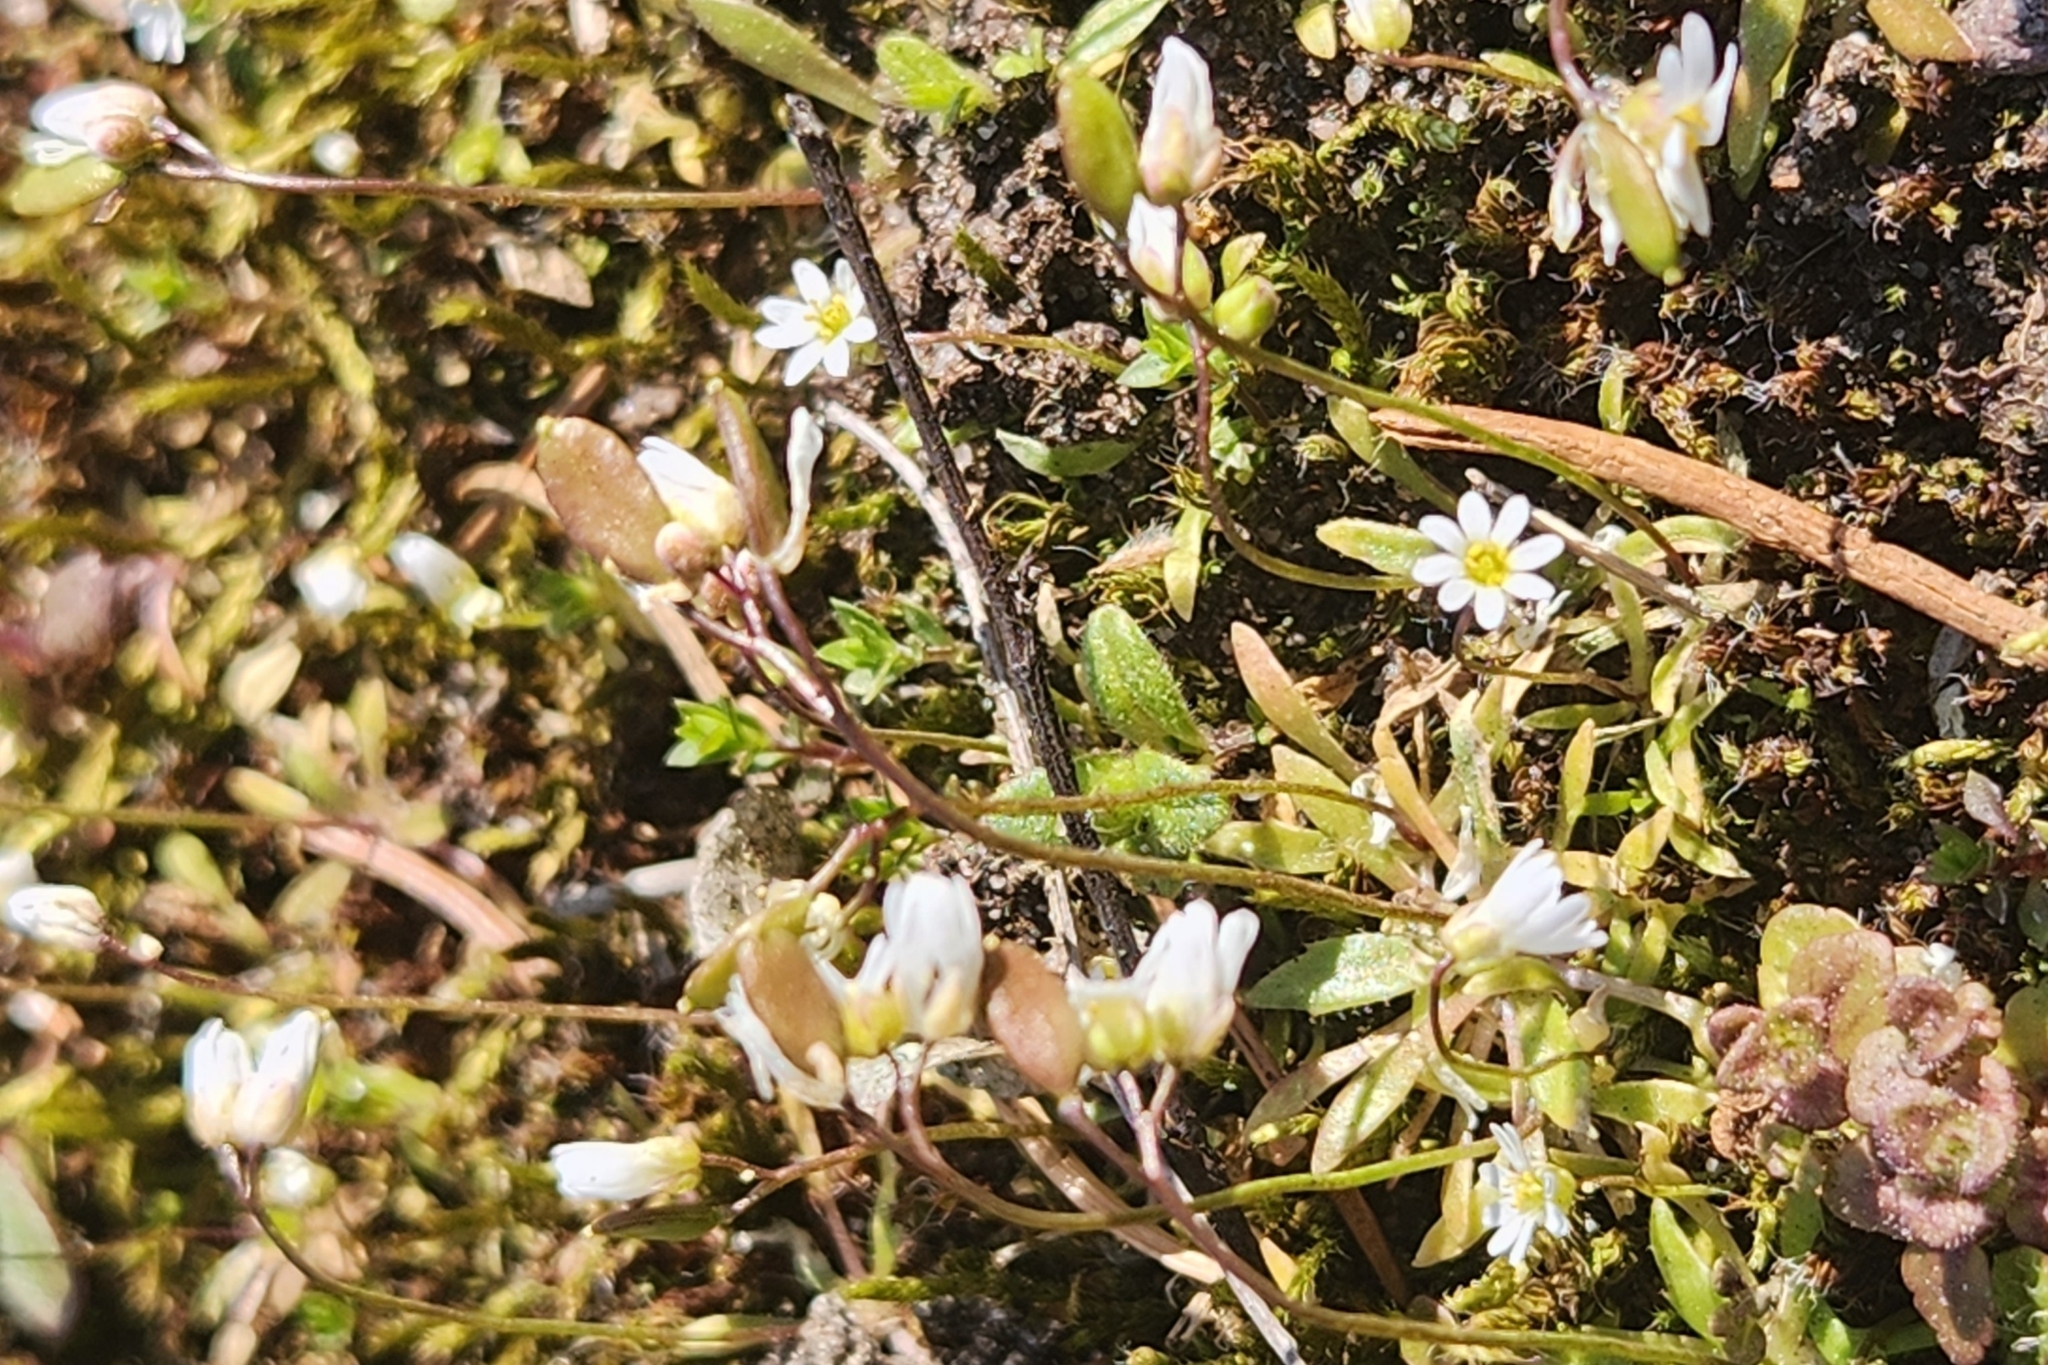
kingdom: Plantae
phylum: Tracheophyta
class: Magnoliopsida
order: Brassicales
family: Brassicaceae
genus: Draba
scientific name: Draba verna
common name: Spring draba
